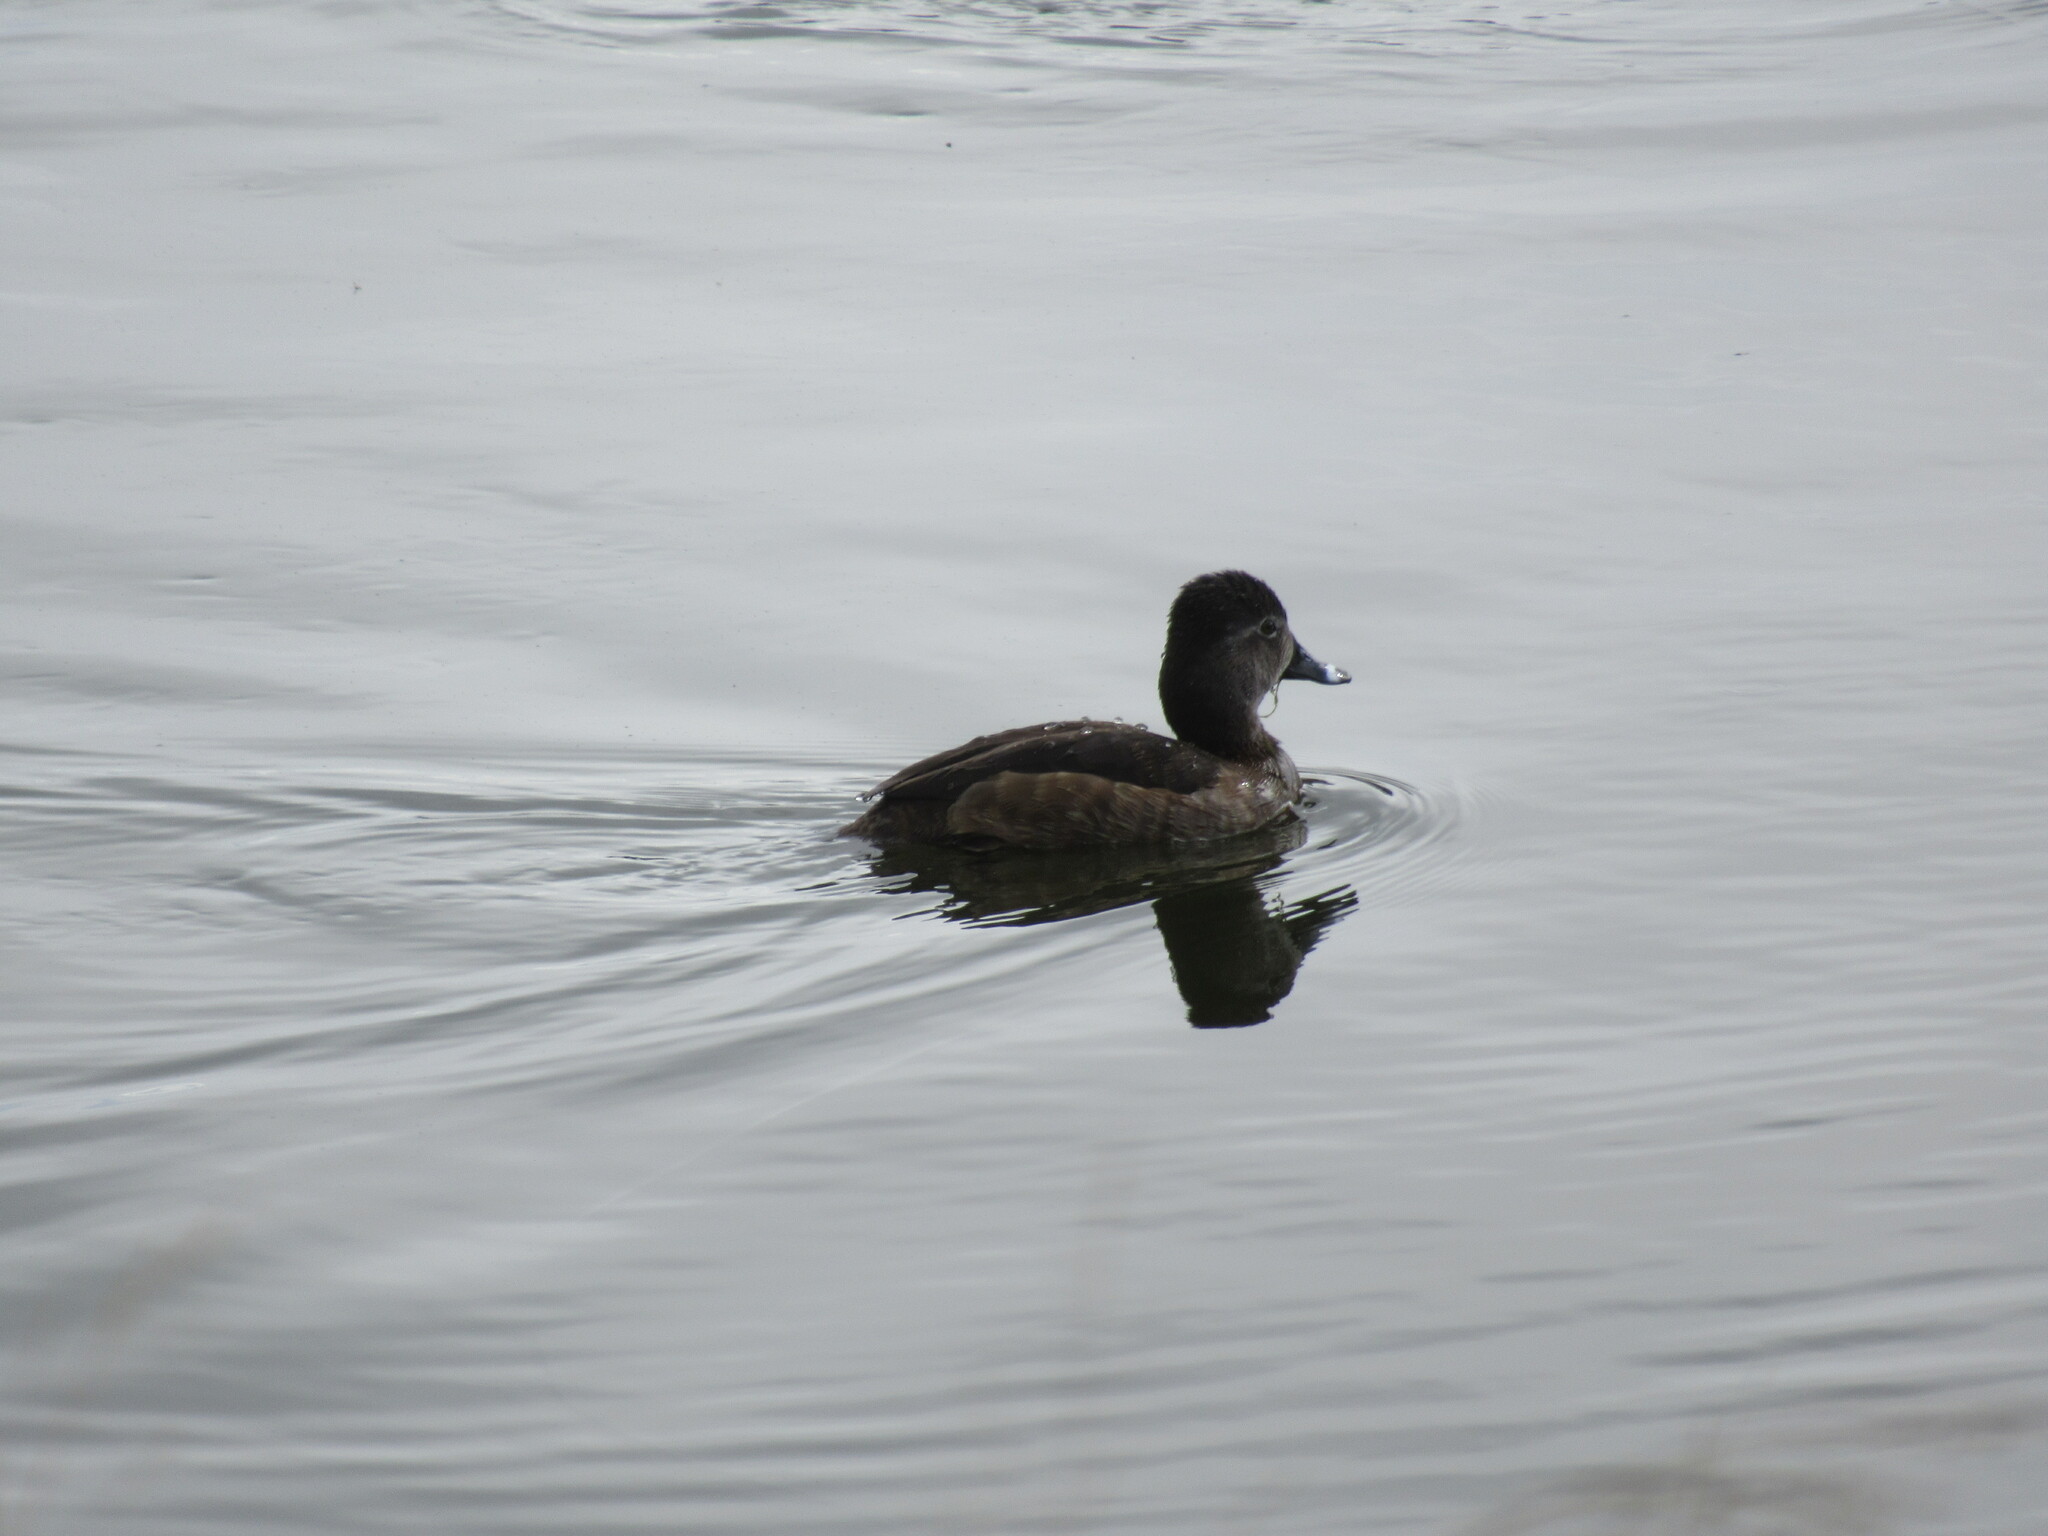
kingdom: Animalia
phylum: Chordata
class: Aves
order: Anseriformes
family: Anatidae
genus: Aythya
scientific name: Aythya collaris
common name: Ring-necked duck
